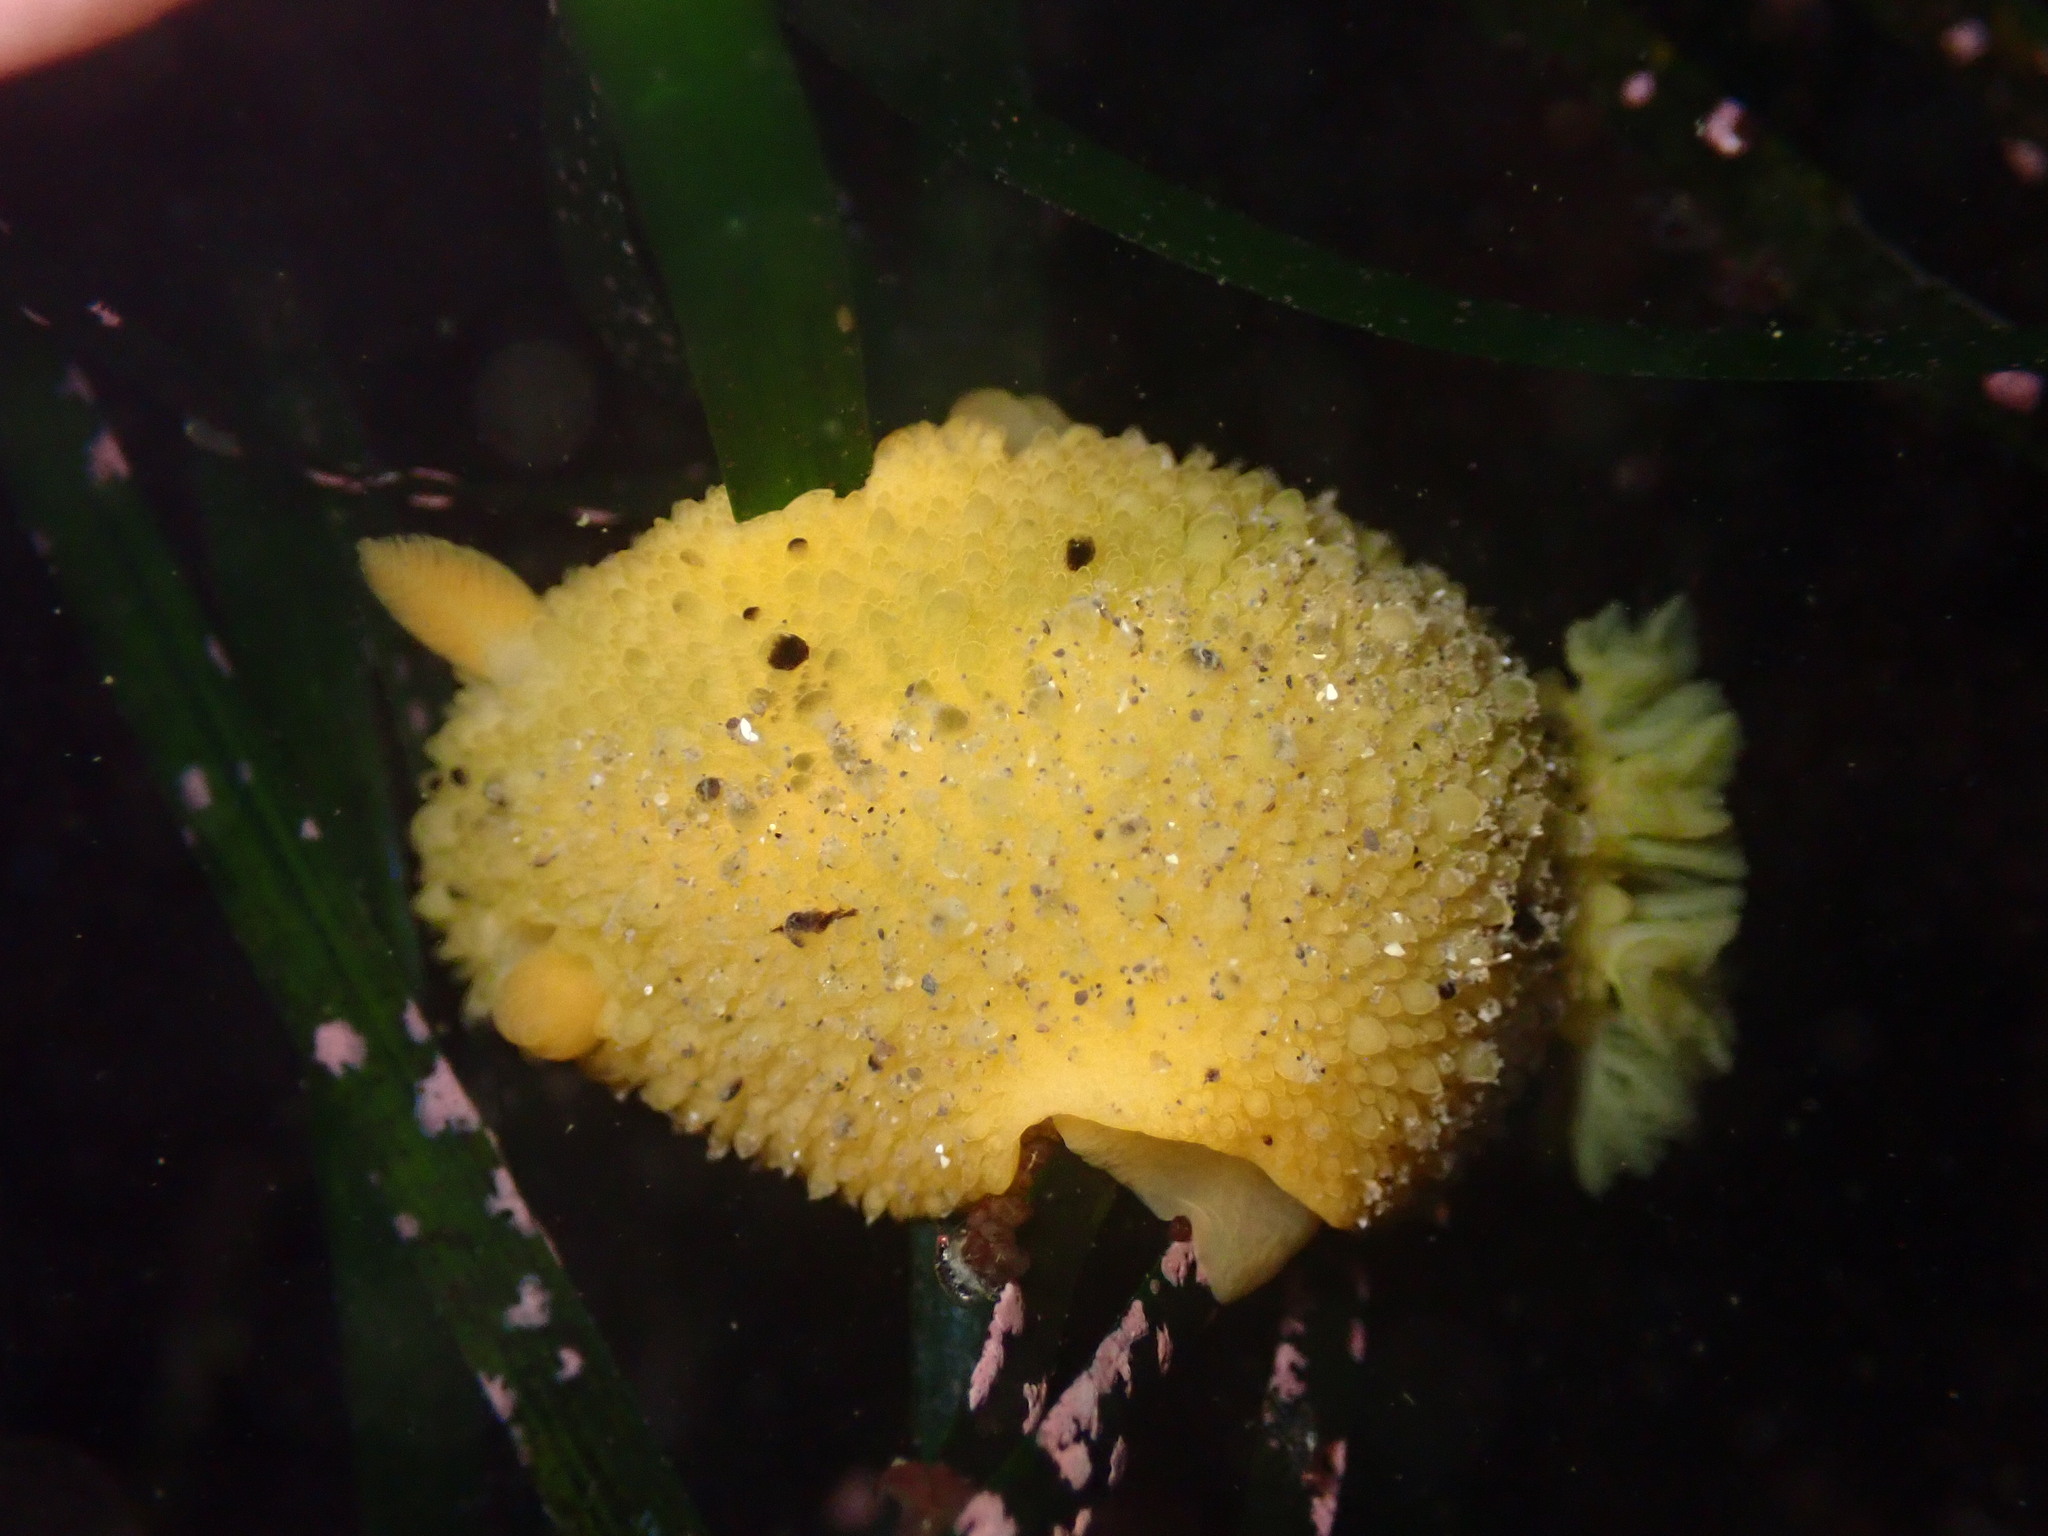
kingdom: Animalia
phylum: Mollusca
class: Gastropoda
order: Nudibranchia
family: Dorididae
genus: Doris
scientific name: Doris montereyensis
